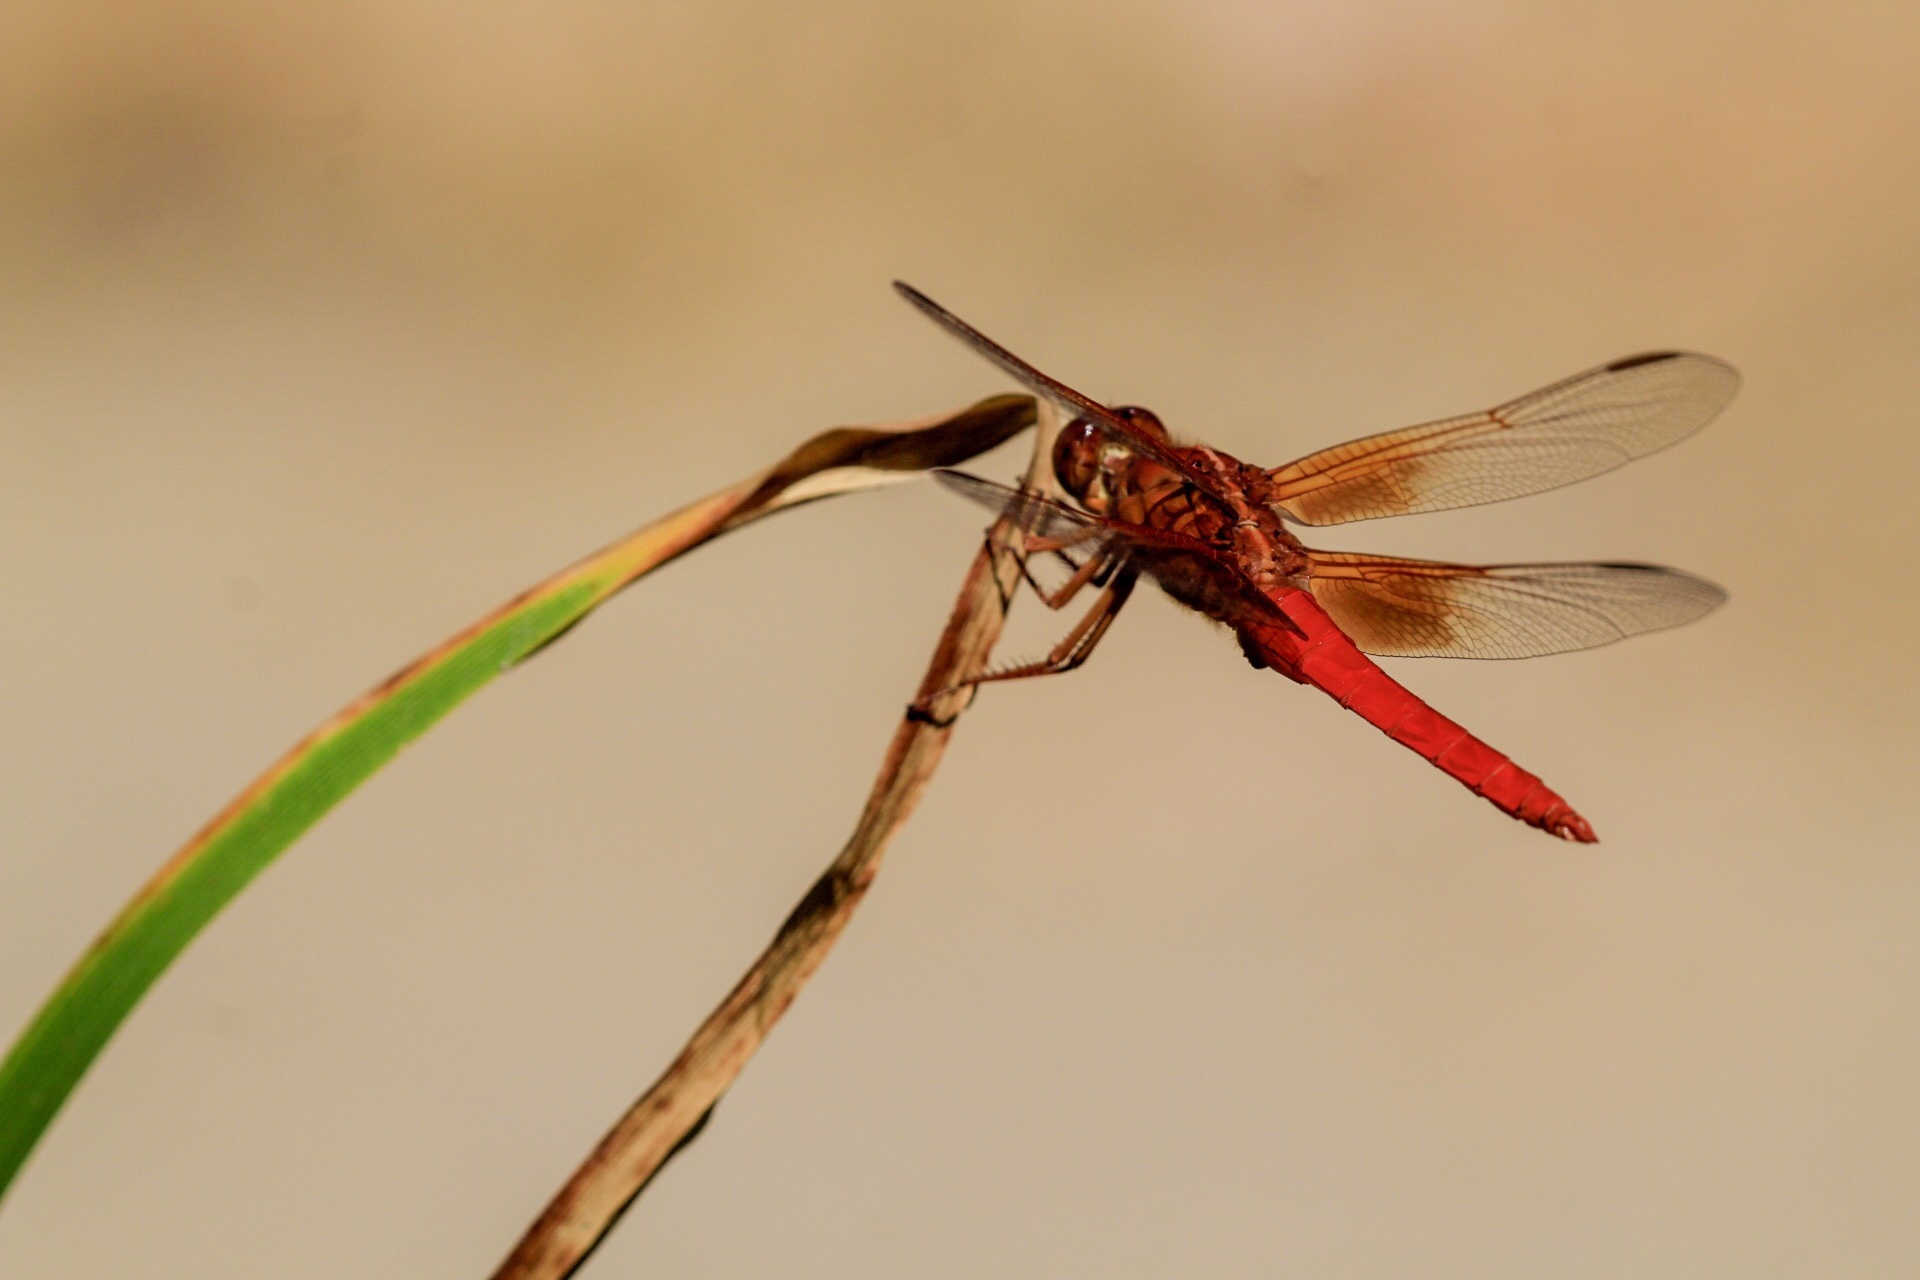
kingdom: Animalia
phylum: Arthropoda
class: Insecta
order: Odonata
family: Libellulidae
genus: Libellula
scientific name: Libellula croceipennis
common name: Neon skimmer
